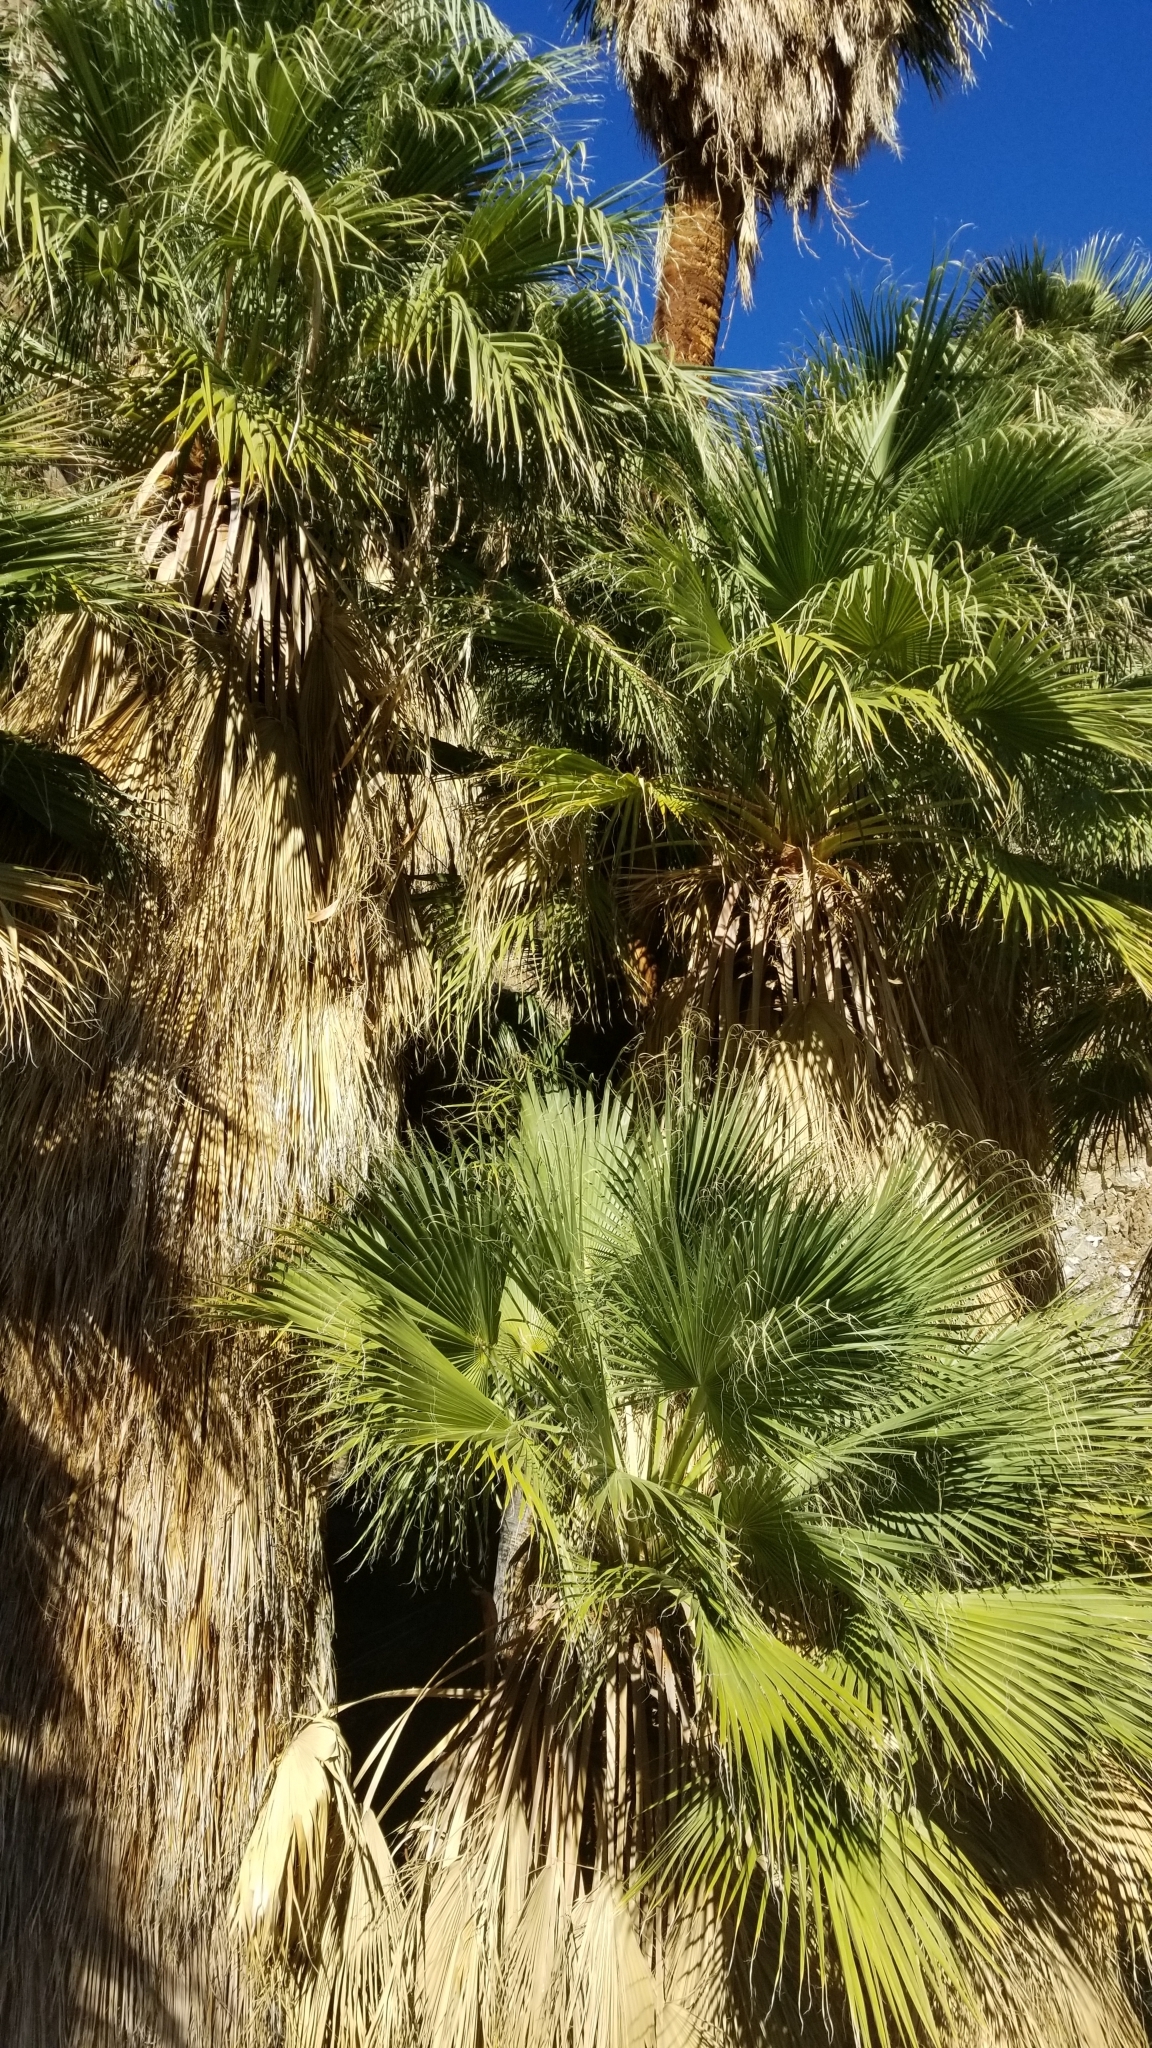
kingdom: Plantae
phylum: Tracheophyta
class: Liliopsida
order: Arecales
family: Arecaceae
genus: Washingtonia
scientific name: Washingtonia filifera
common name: California fan palm
